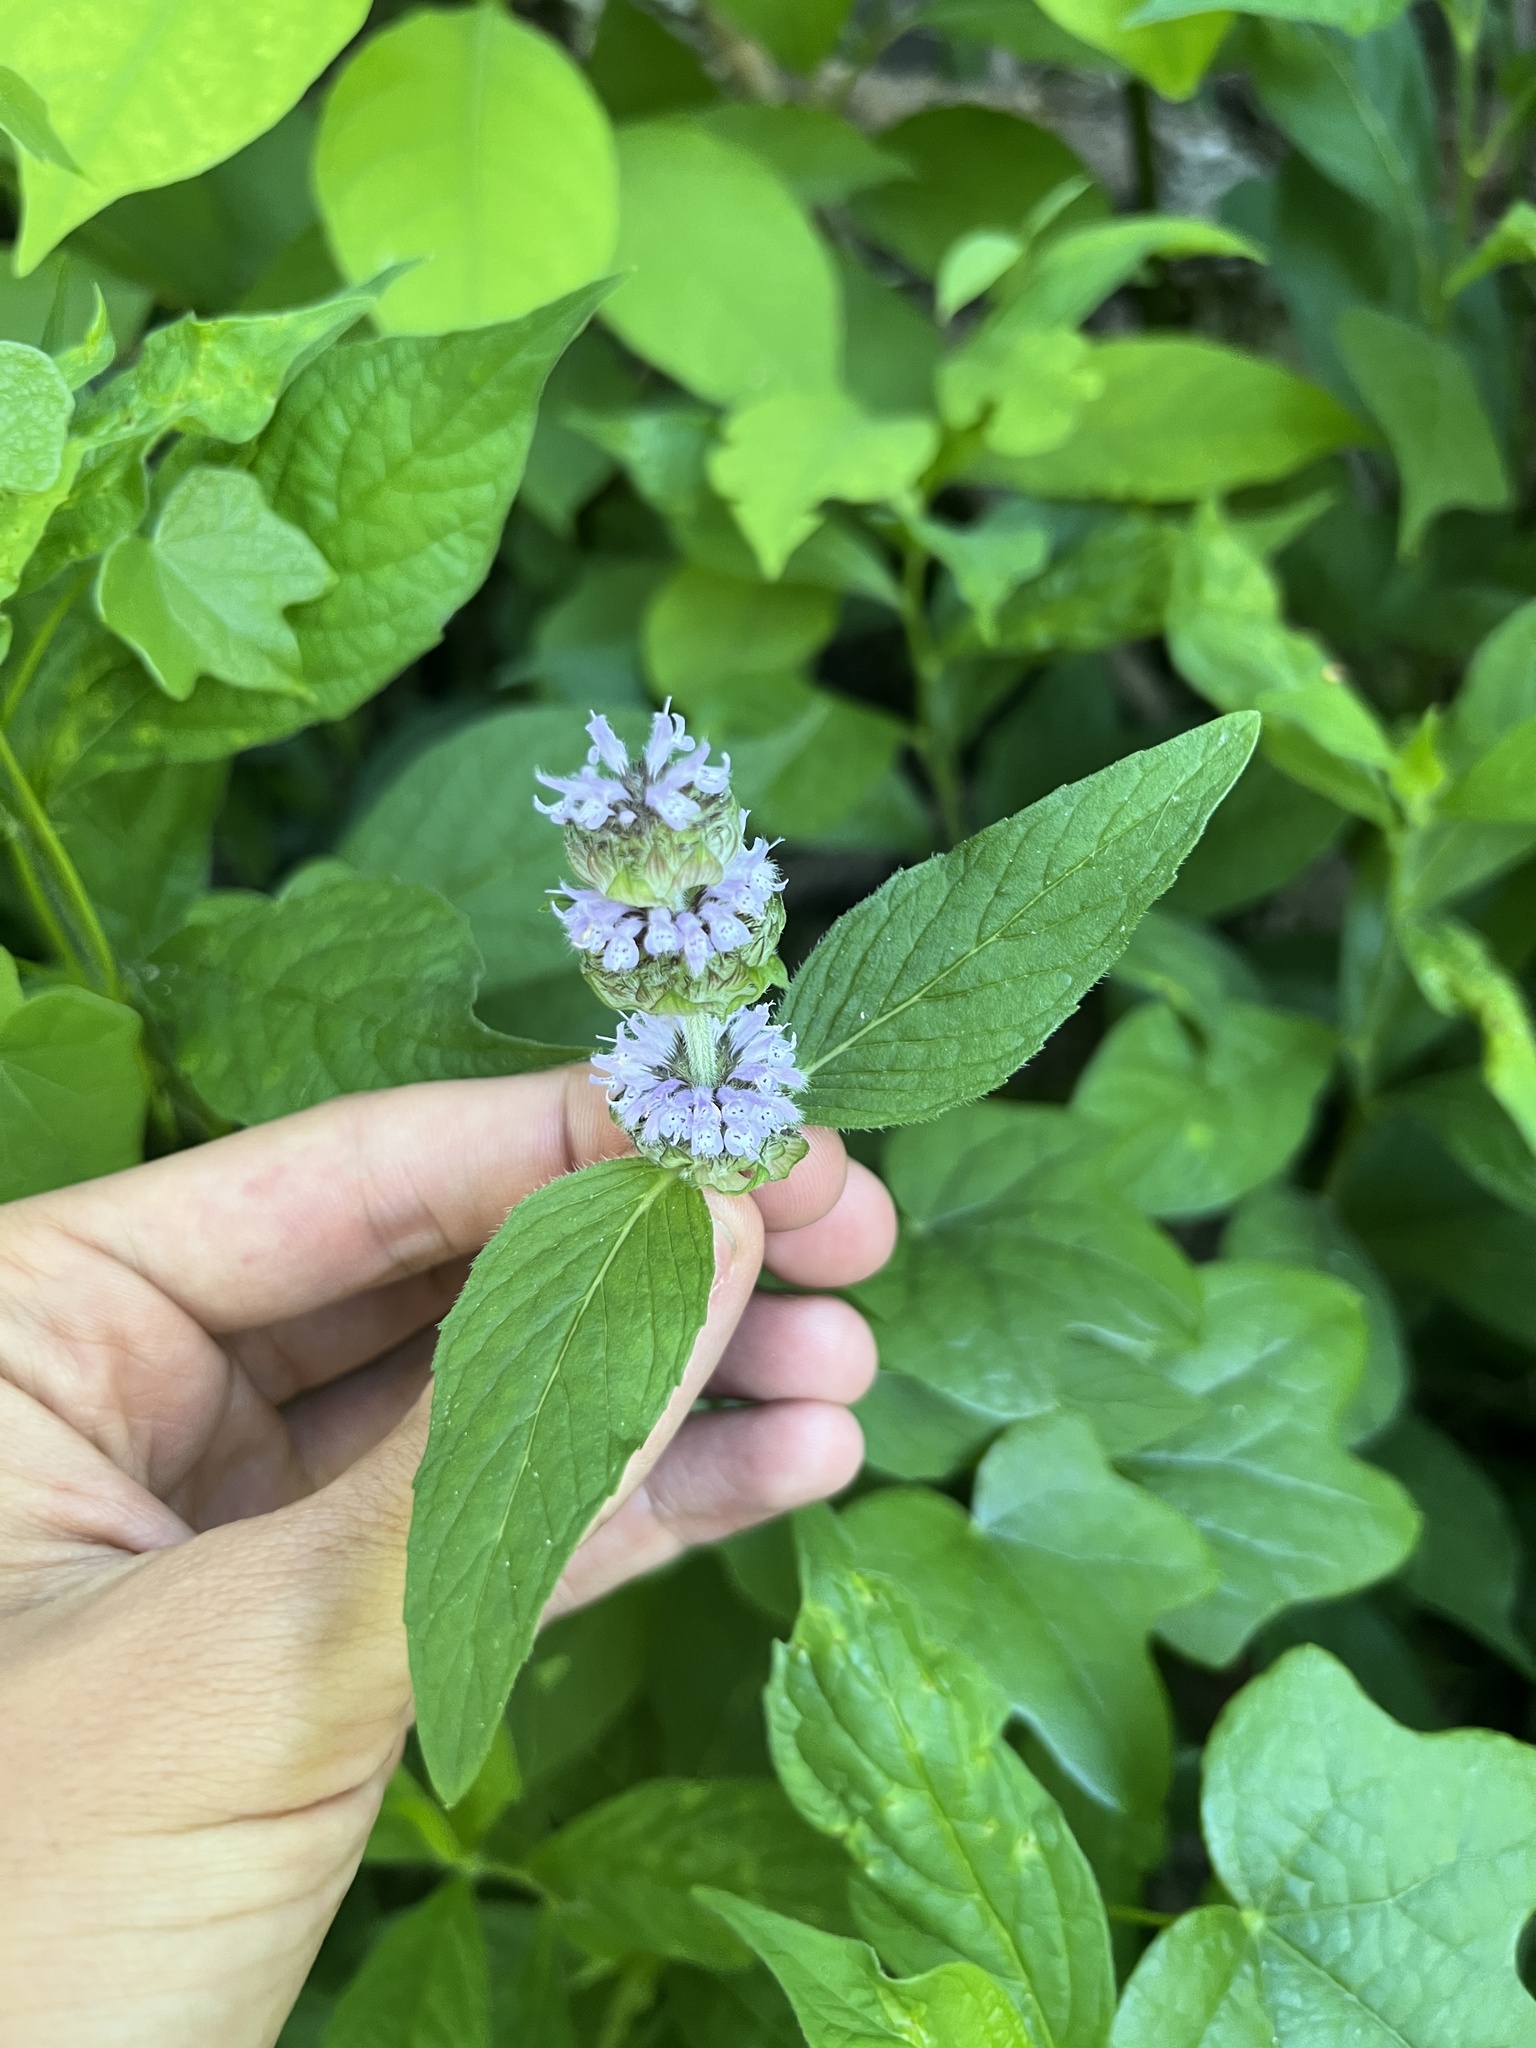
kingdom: Plantae
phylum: Tracheophyta
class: Magnoliopsida
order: Lamiales
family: Lamiaceae
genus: Blephilia
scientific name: Blephilia ciliata
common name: Downy blephilia
